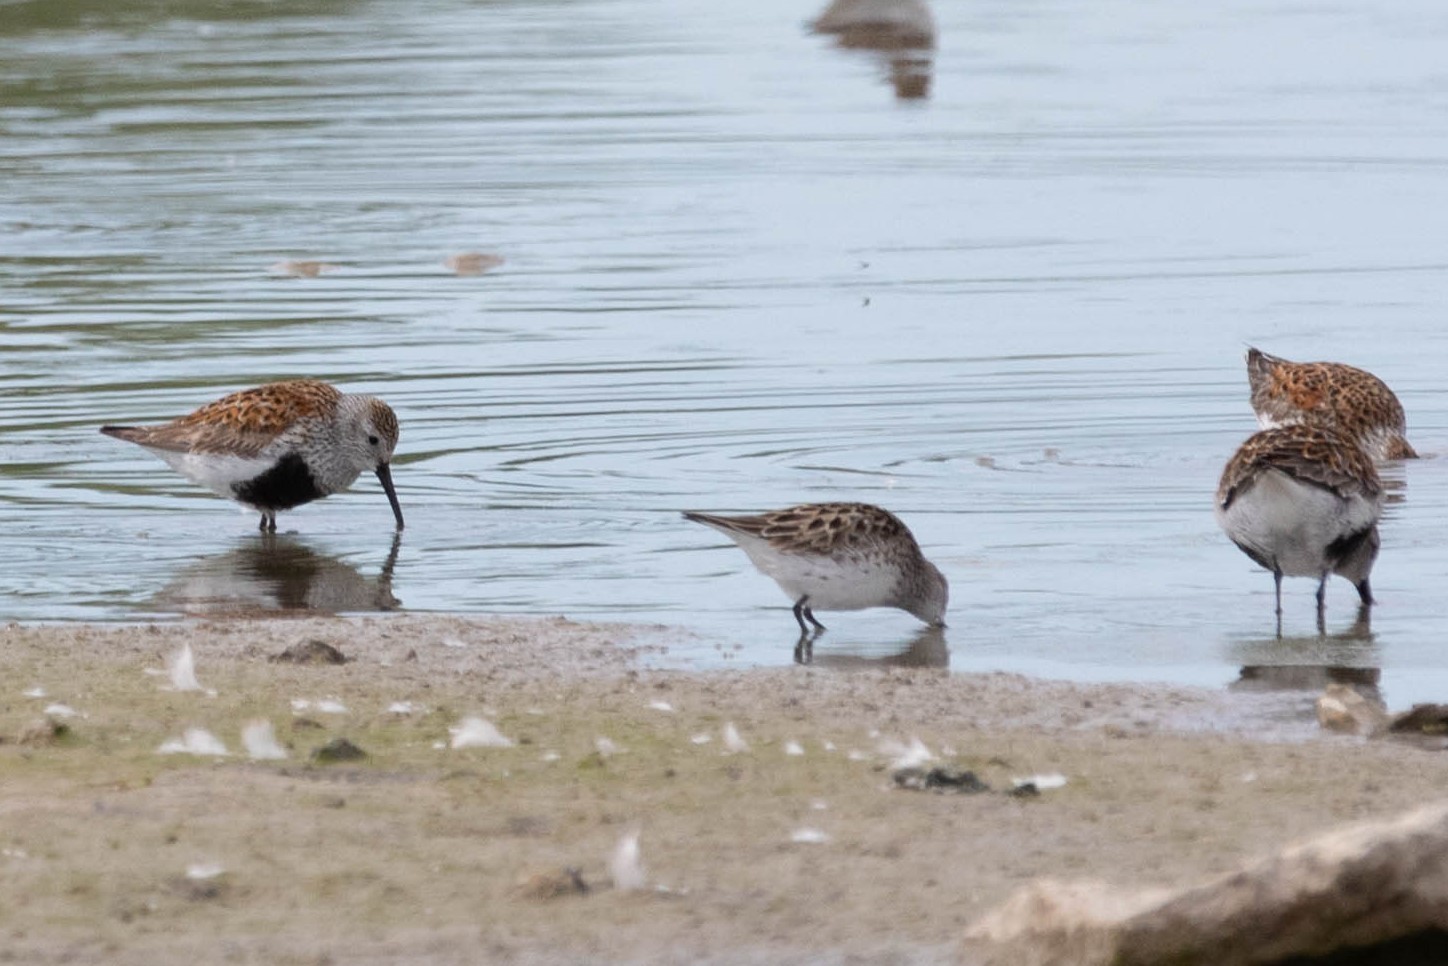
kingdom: Animalia
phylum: Chordata
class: Aves
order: Charadriiformes
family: Scolopacidae
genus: Calidris
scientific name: Calidris pusilla
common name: Semipalmated sandpiper
